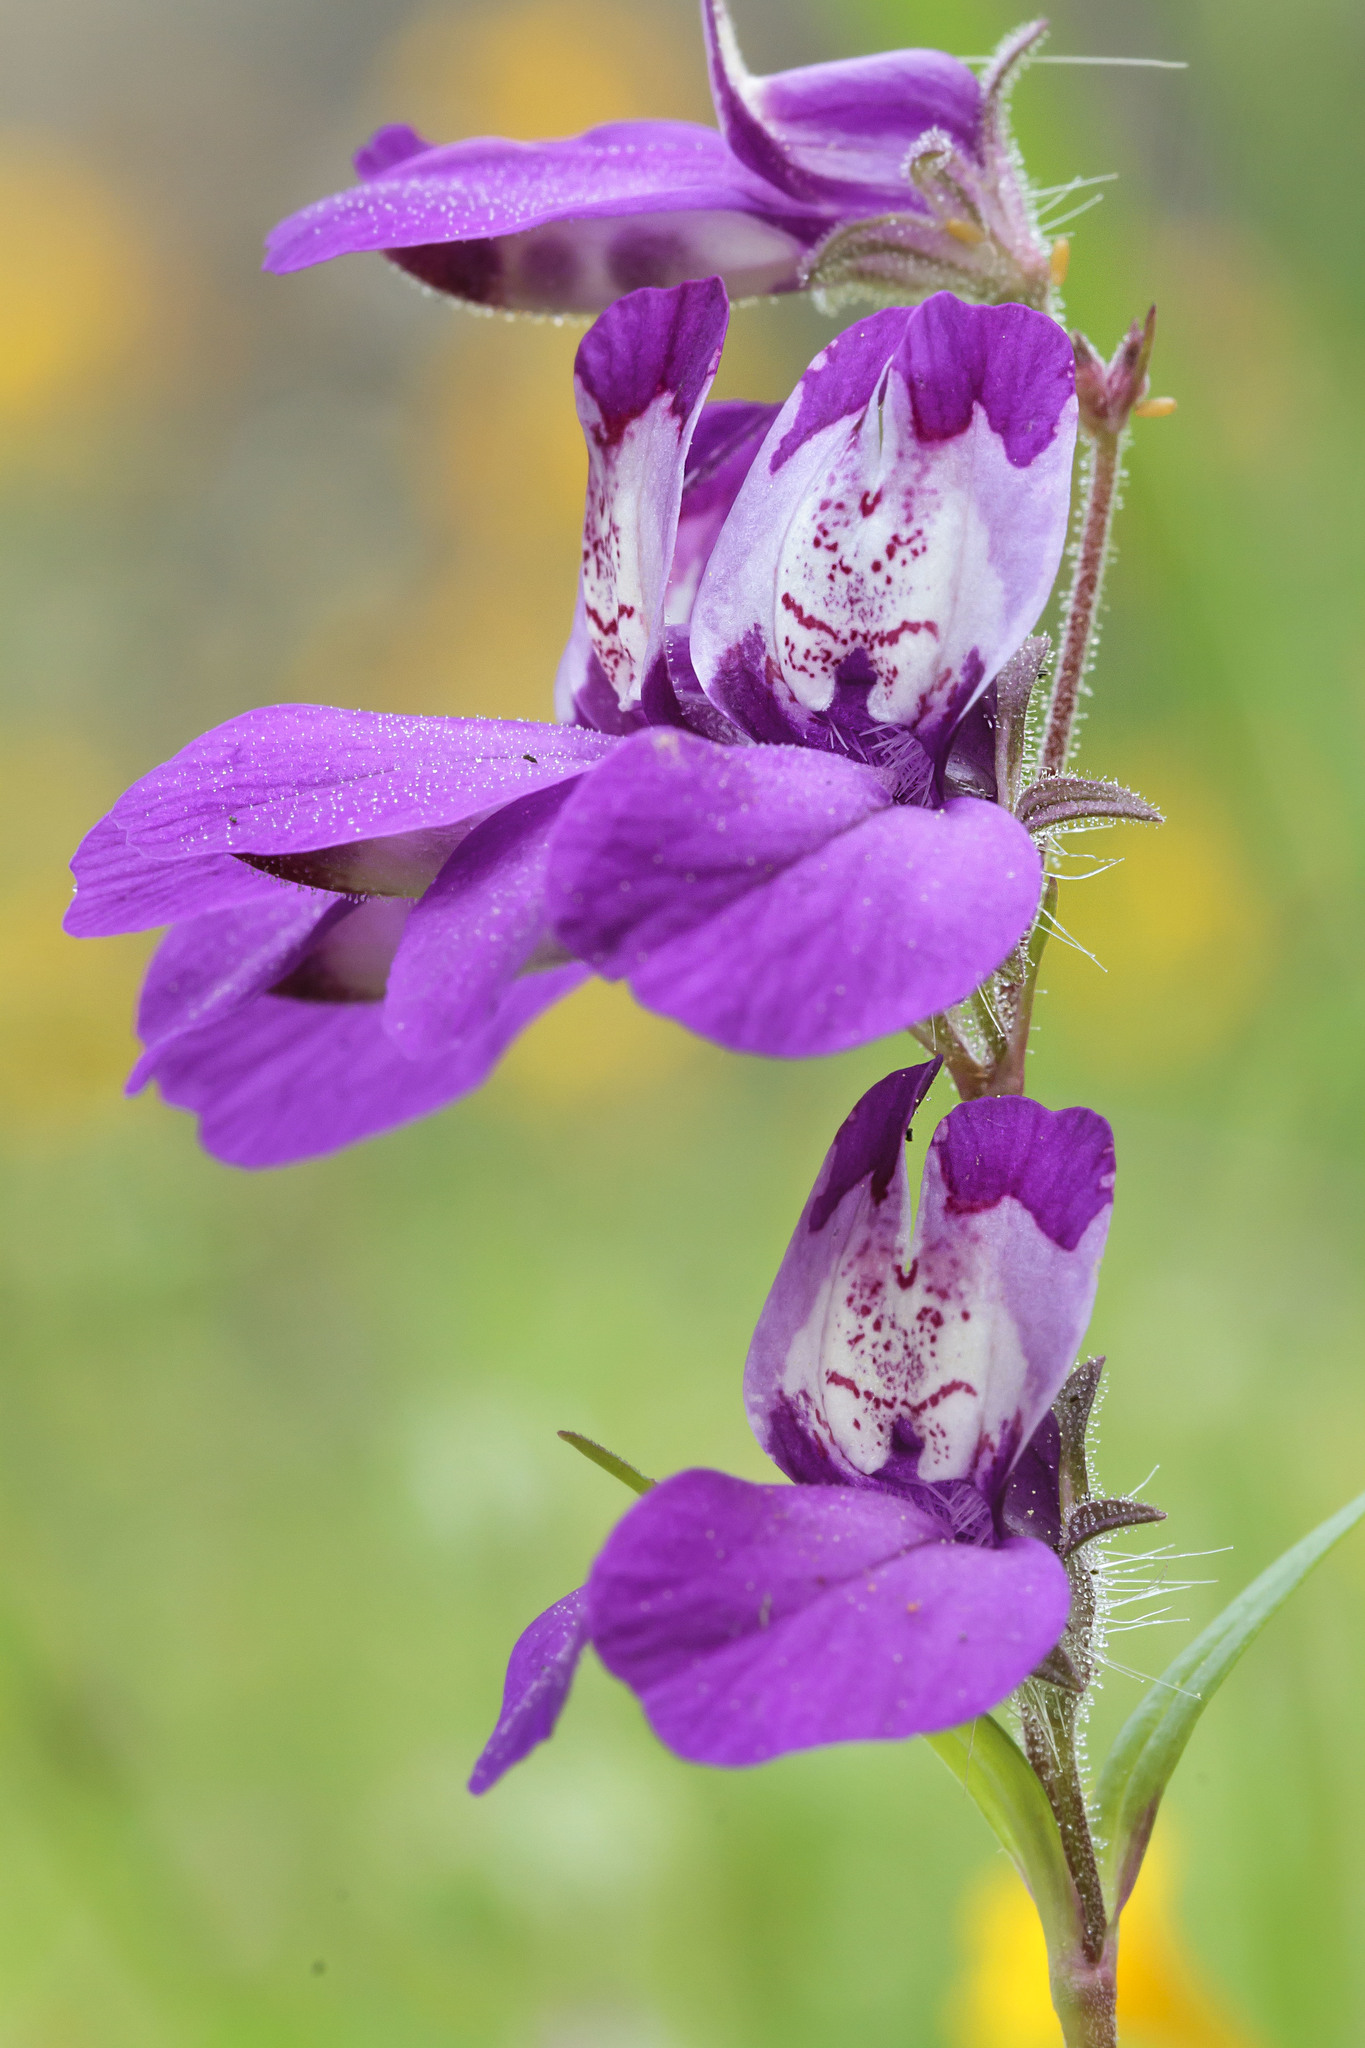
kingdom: Plantae
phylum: Tracheophyta
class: Magnoliopsida
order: Lamiales
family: Plantaginaceae
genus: Collinsia
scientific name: Collinsia heterophylla
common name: Chinese-houses
